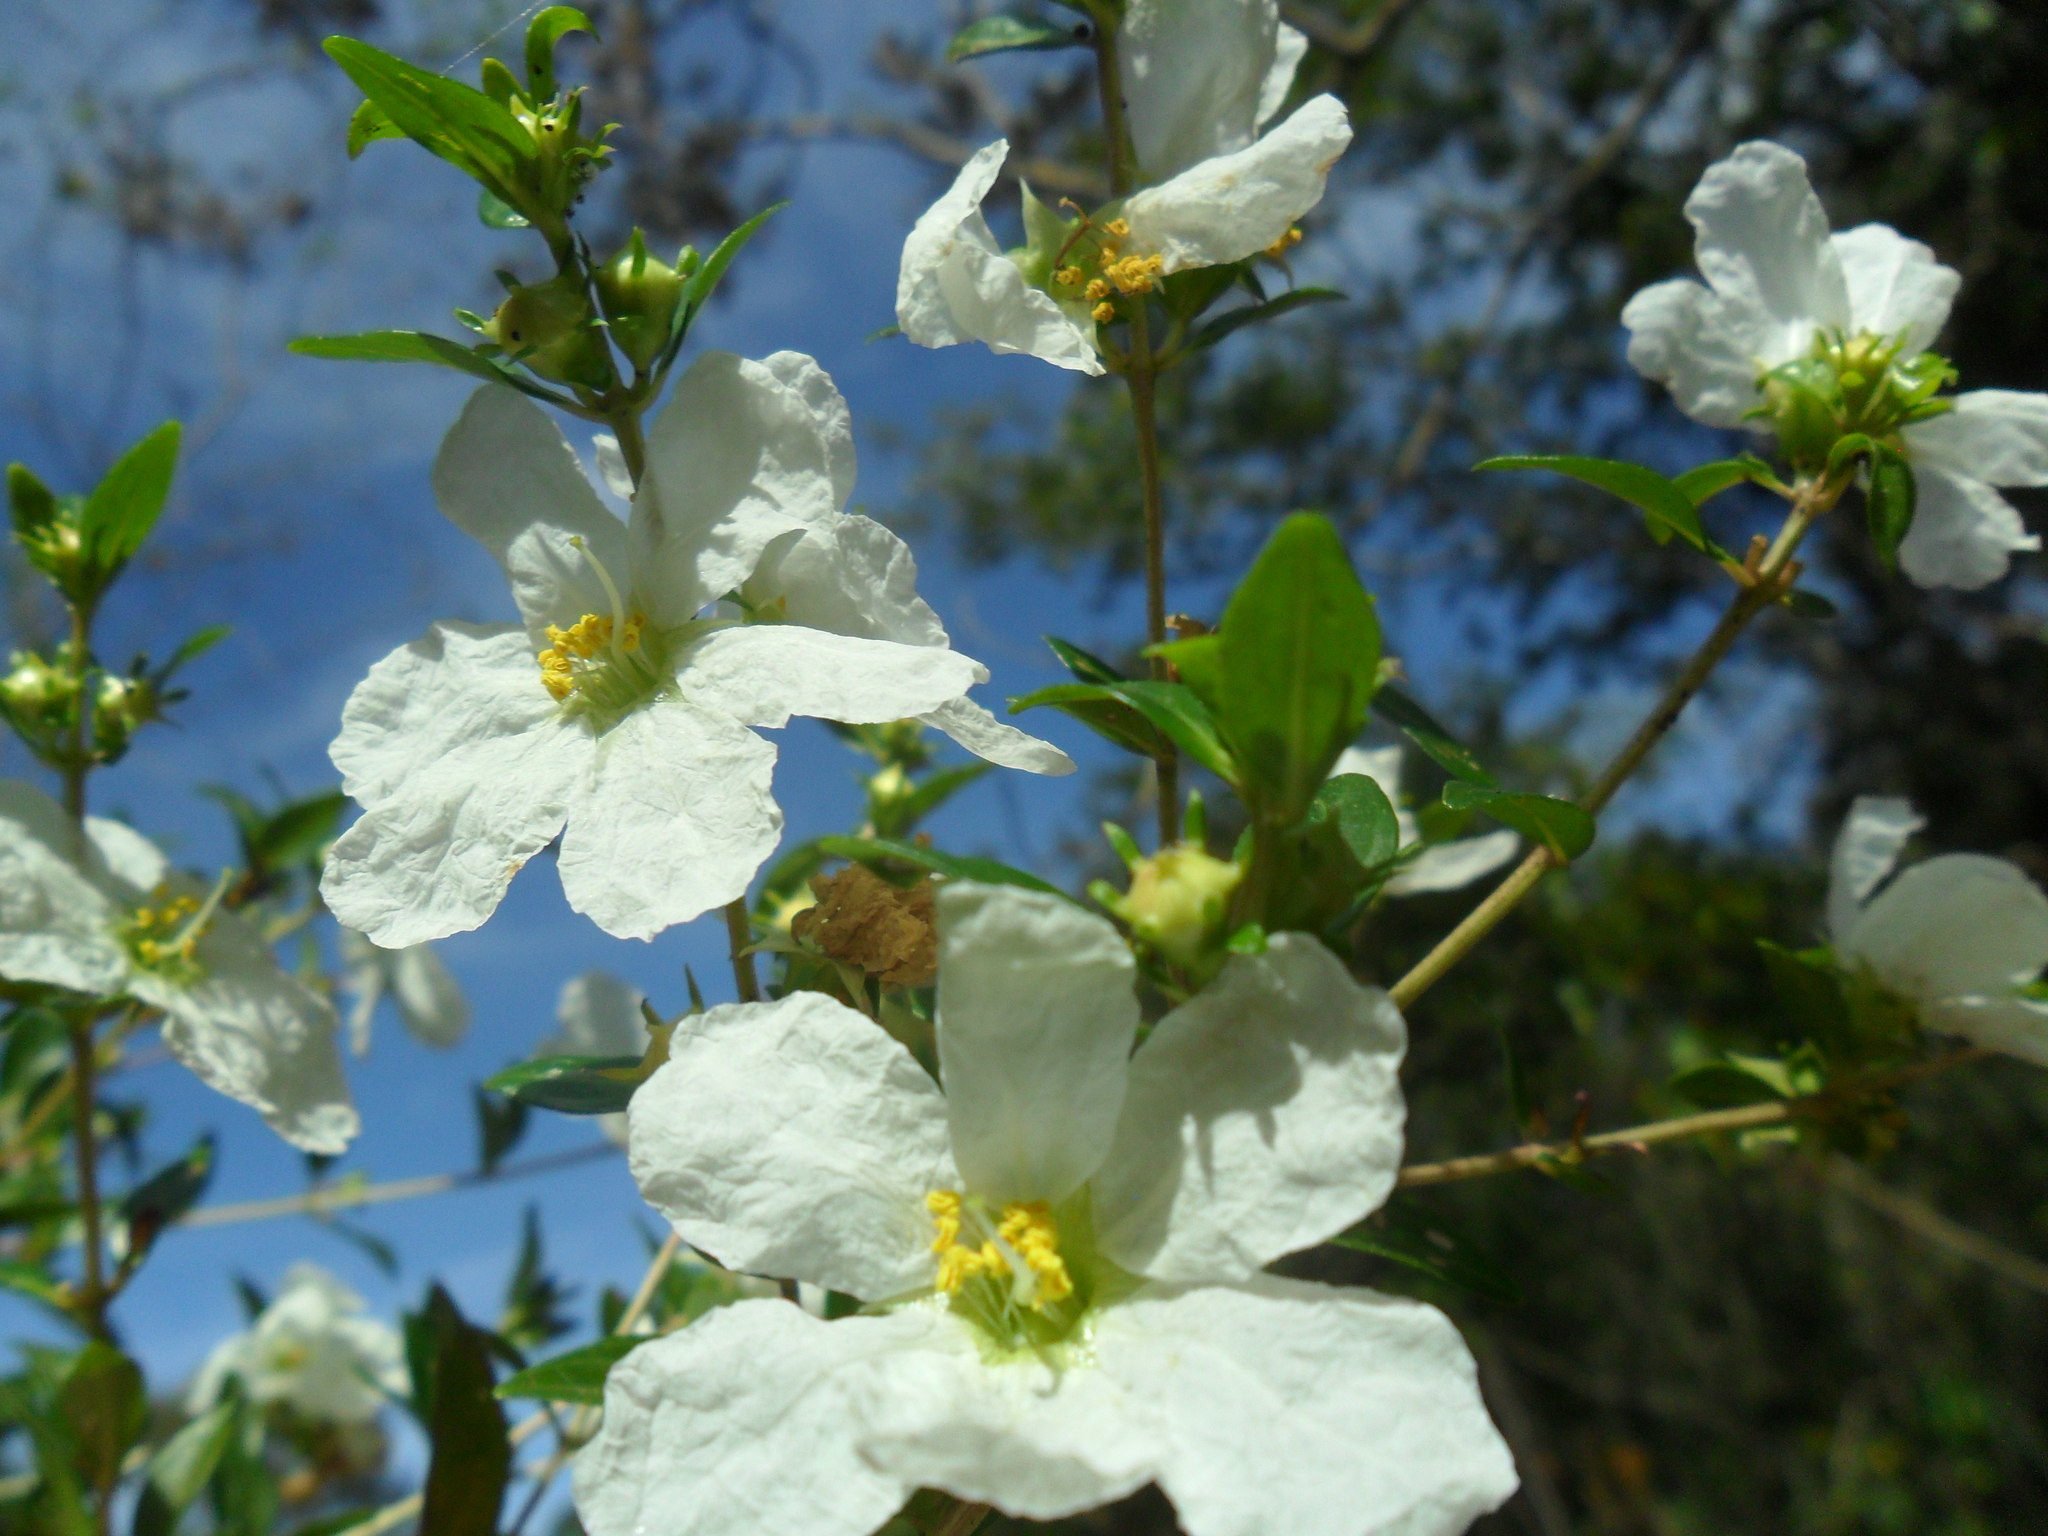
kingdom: Plantae
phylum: Tracheophyta
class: Magnoliopsida
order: Myrtales
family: Lythraceae
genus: Diplusodon
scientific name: Diplusodon virgatus
